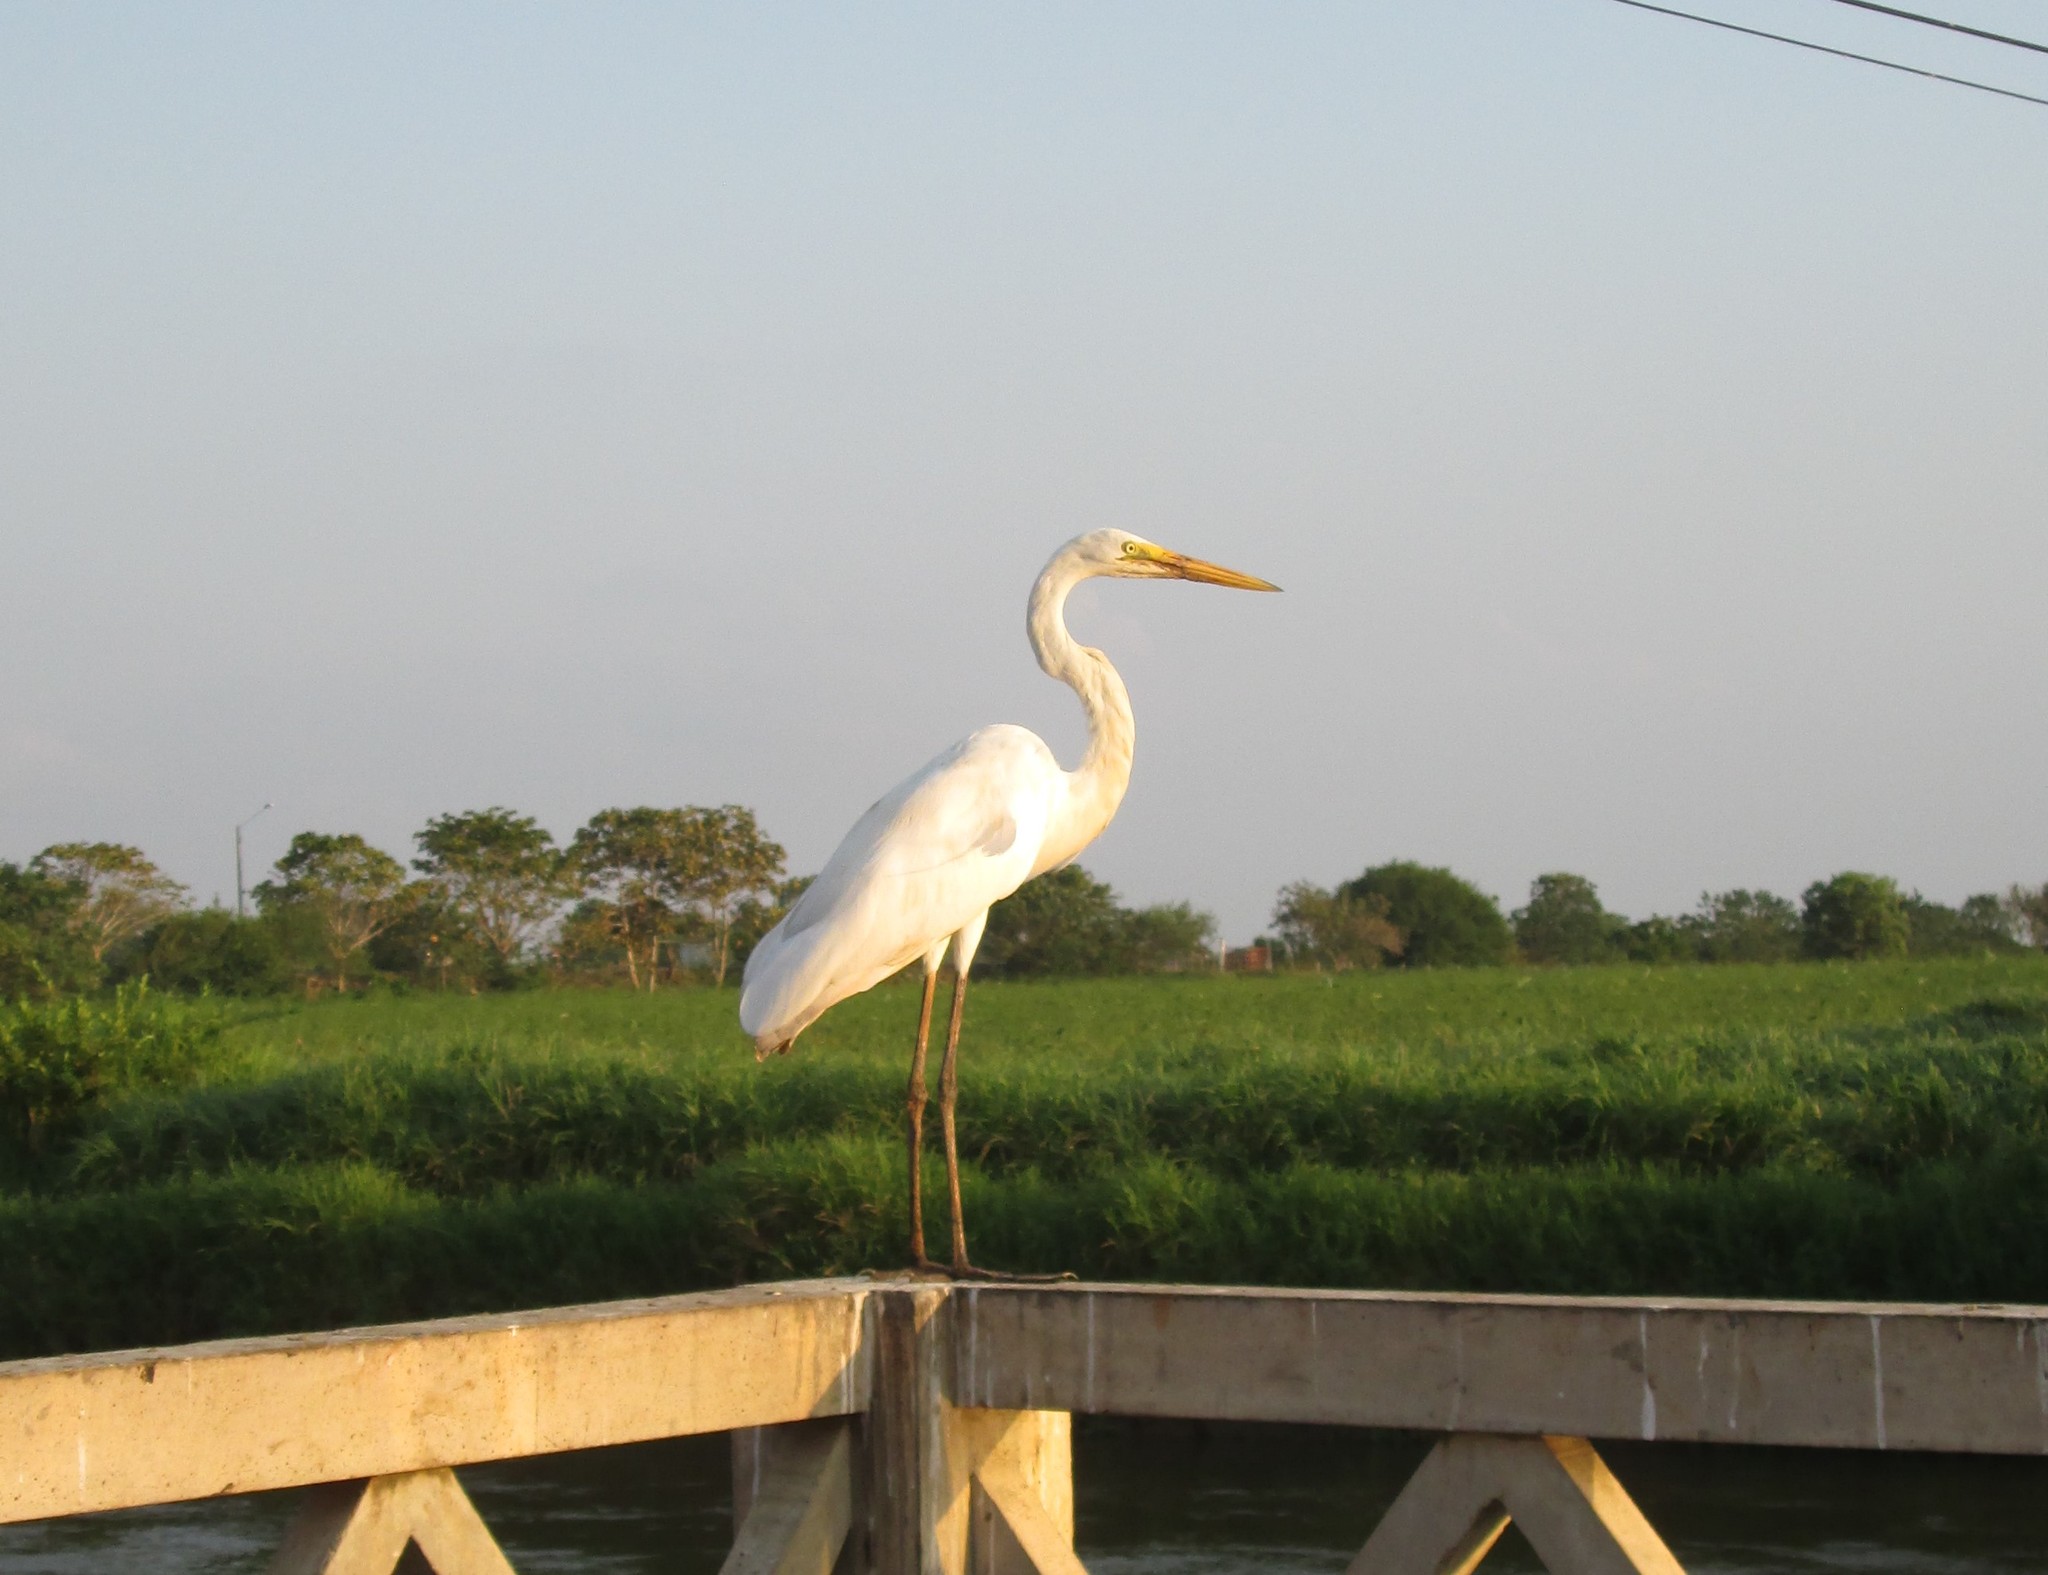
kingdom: Animalia
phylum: Chordata
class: Aves
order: Pelecaniformes
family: Ardeidae
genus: Ardea
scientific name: Ardea alba
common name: Great egret
